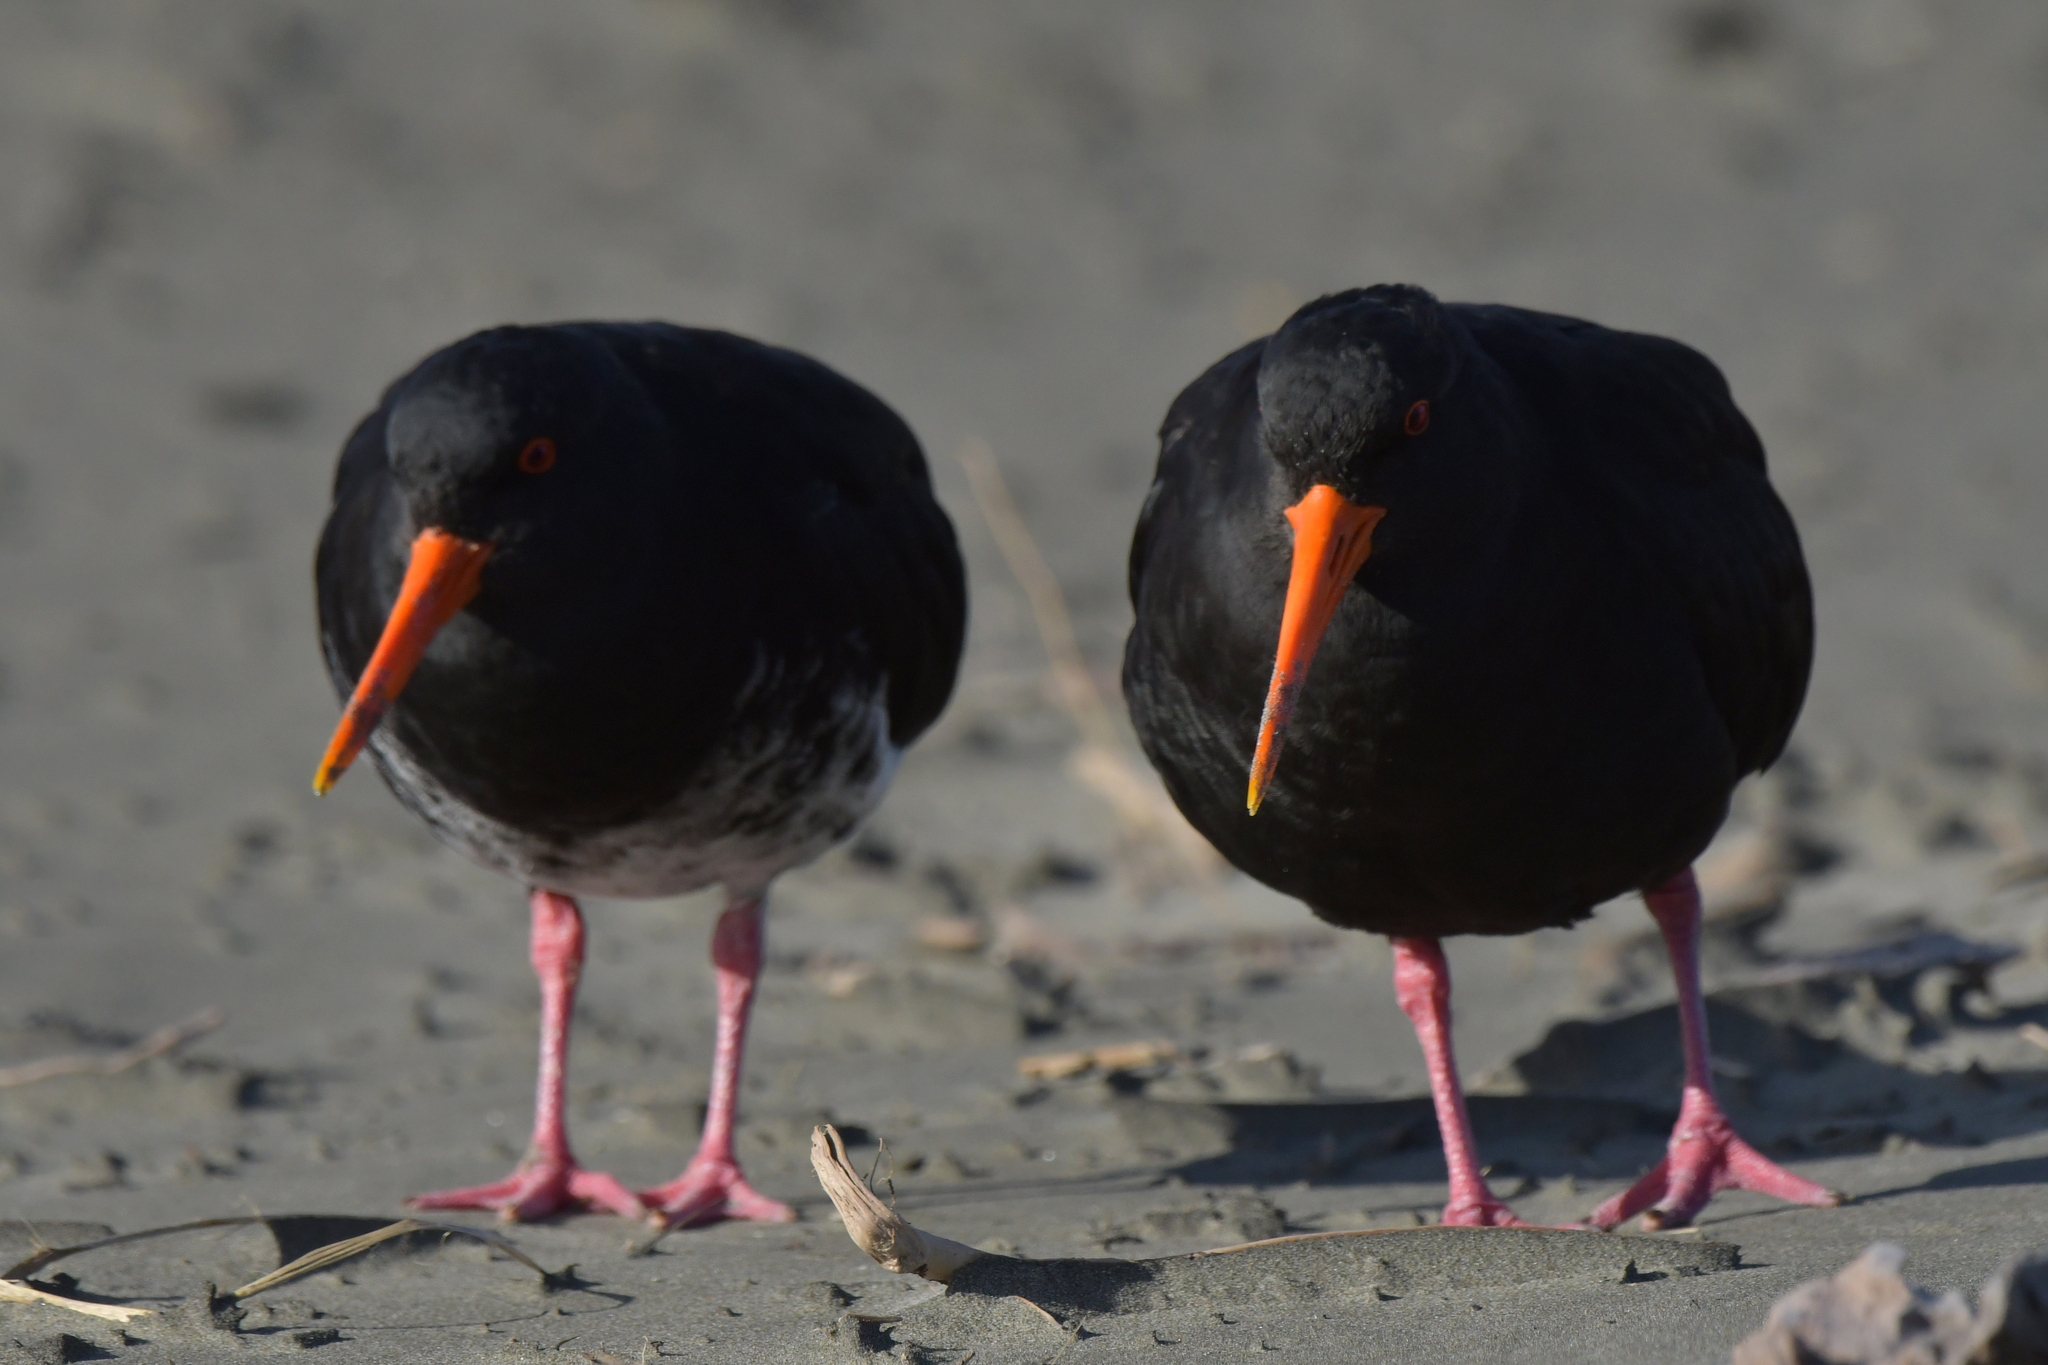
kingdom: Animalia
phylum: Chordata
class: Aves
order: Charadriiformes
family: Haematopodidae
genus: Haematopus
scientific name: Haematopus unicolor
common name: Variable oystercatcher
